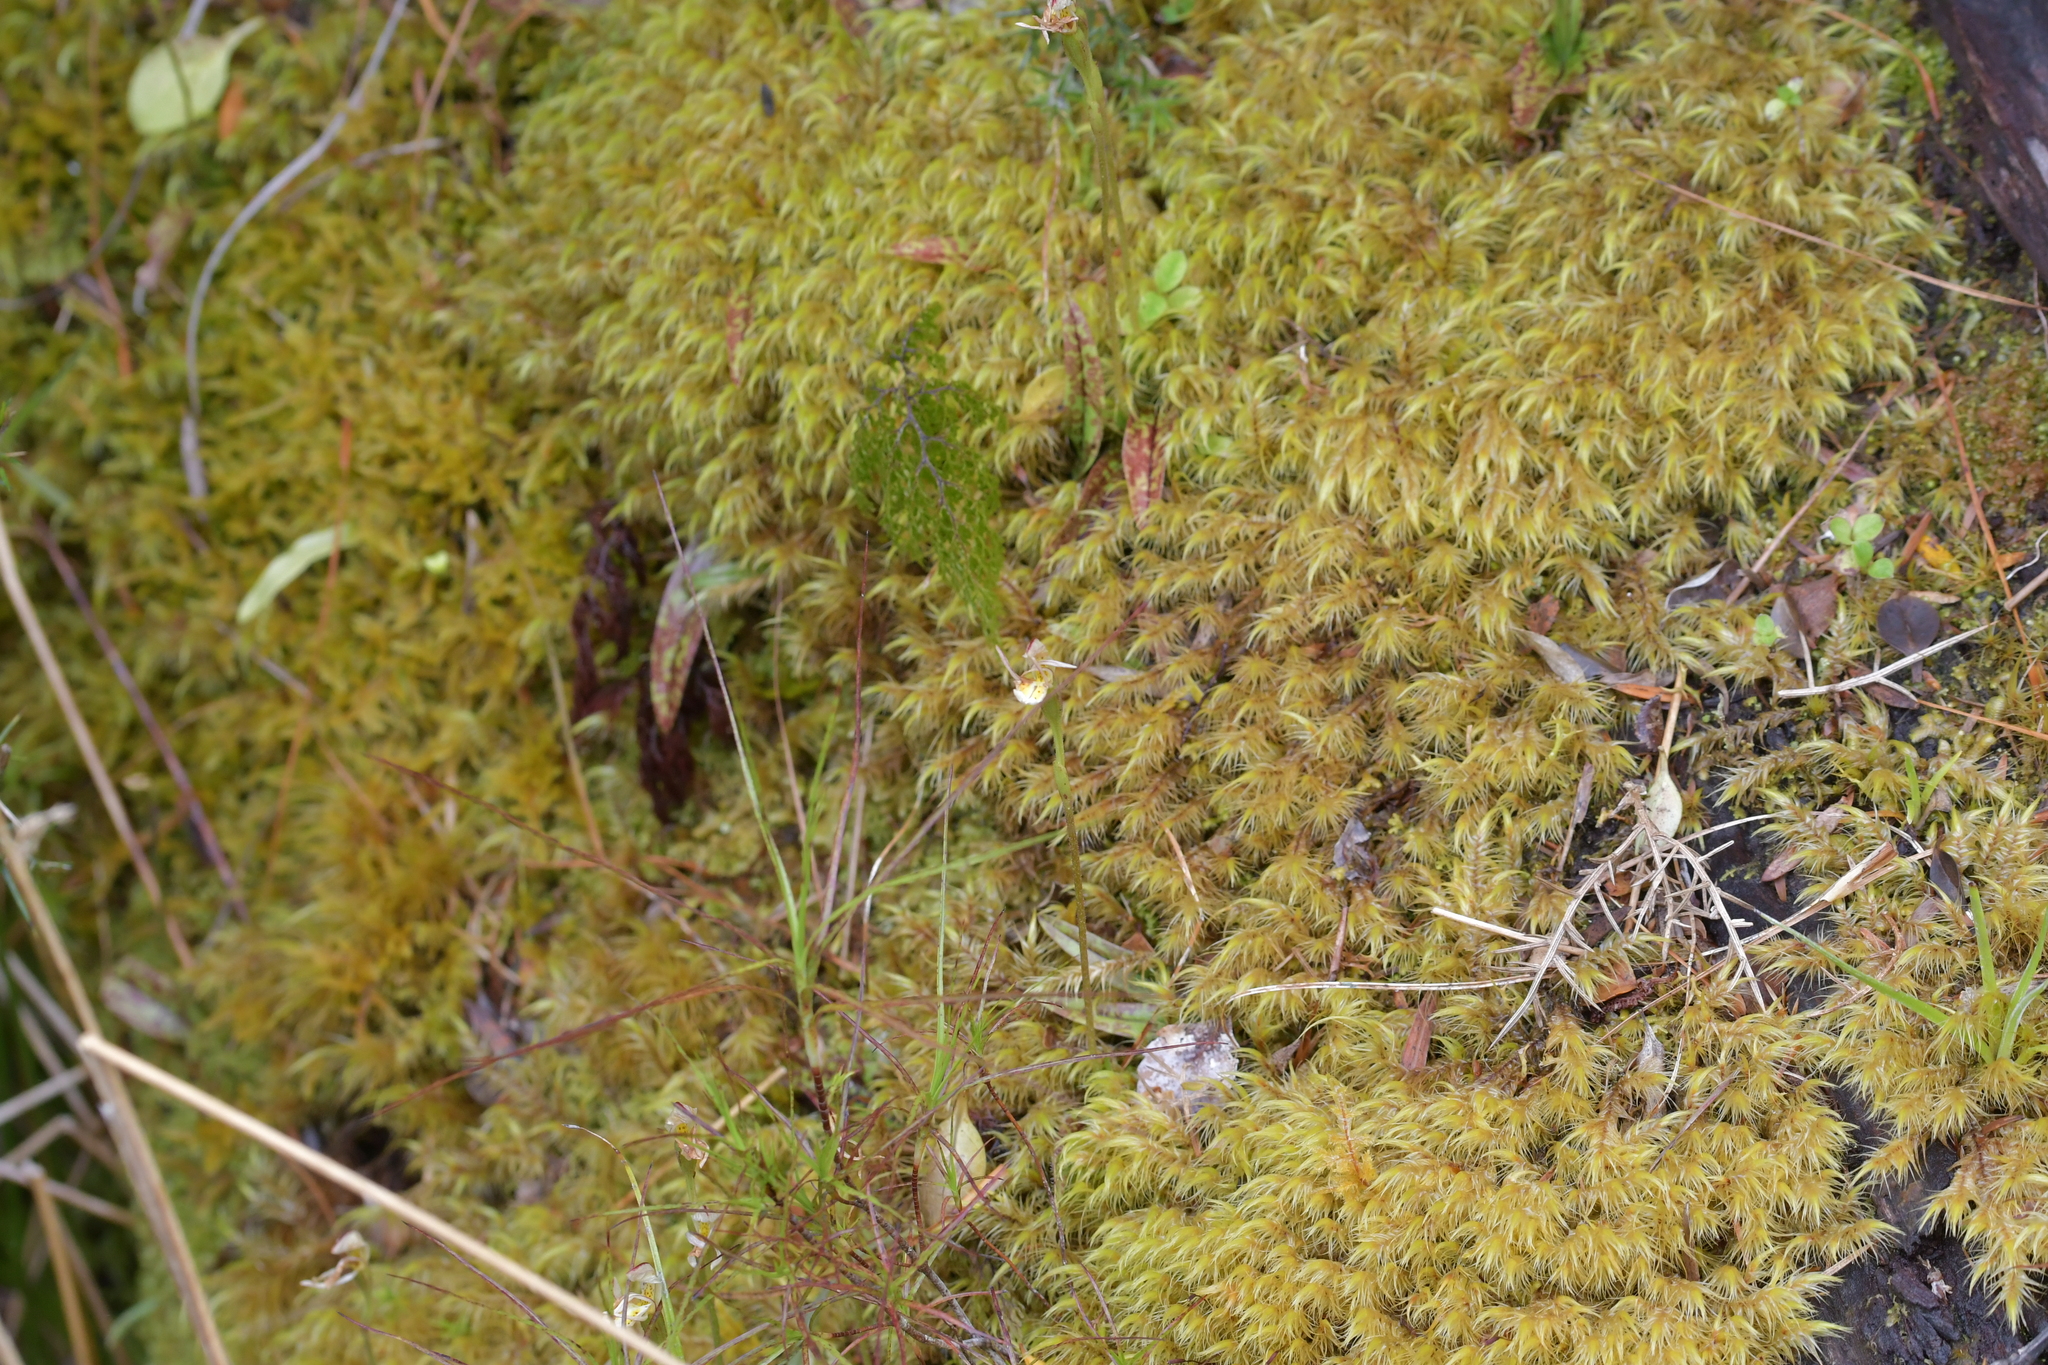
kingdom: Plantae
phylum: Tracheophyta
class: Liliopsida
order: Asparagales
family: Orchidaceae
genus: Aporostylis
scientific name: Aporostylis bifolia
